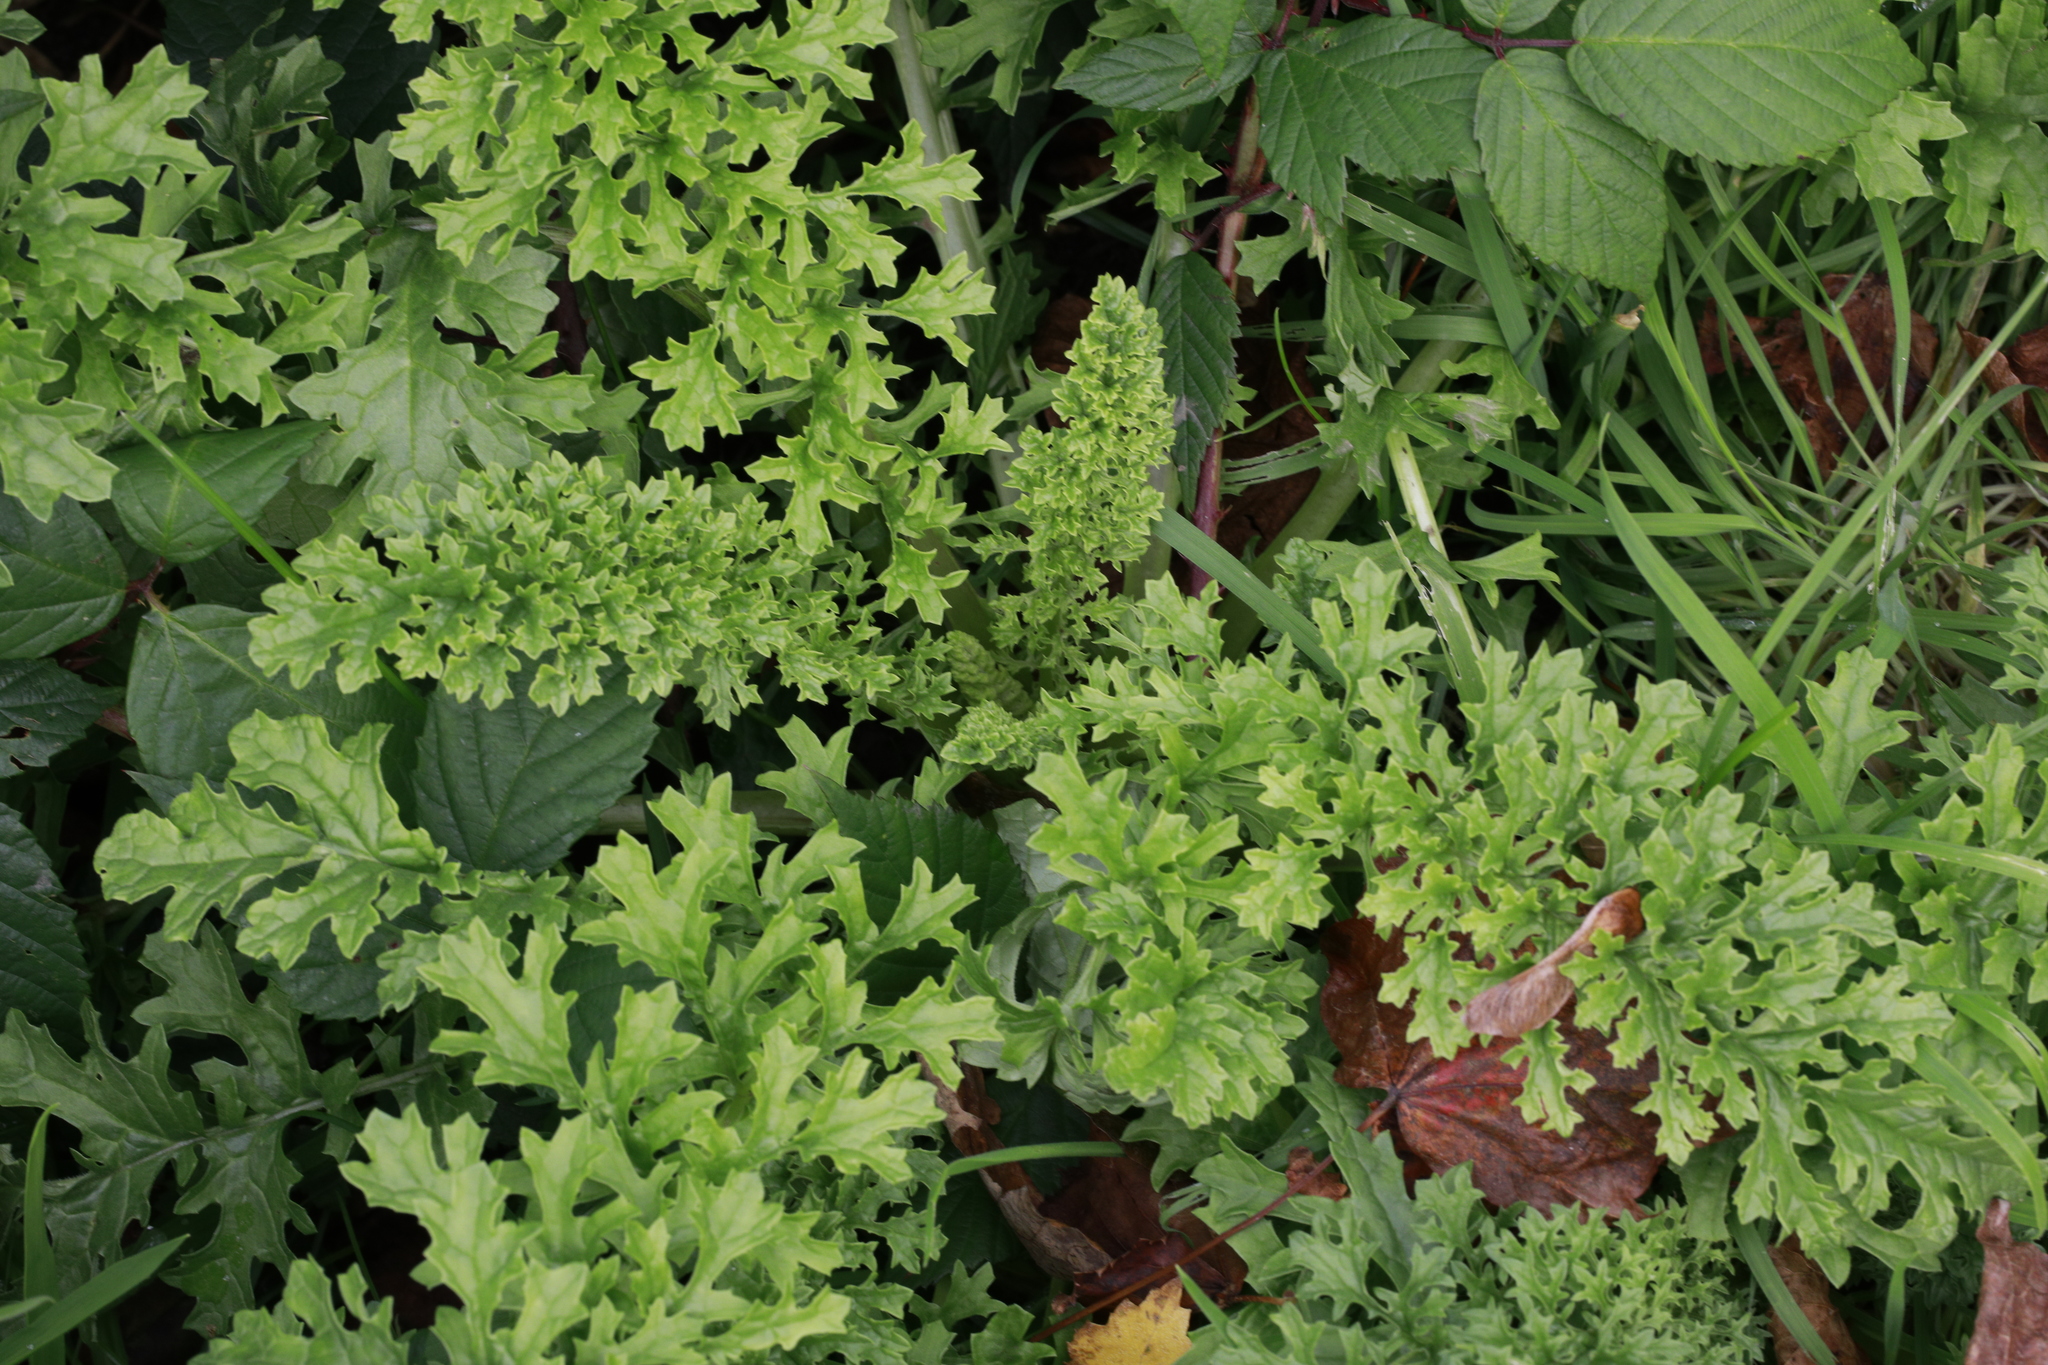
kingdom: Plantae
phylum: Tracheophyta
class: Magnoliopsida
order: Asterales
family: Asteraceae
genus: Jacobaea
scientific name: Jacobaea vulgaris
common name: Stinking willie
